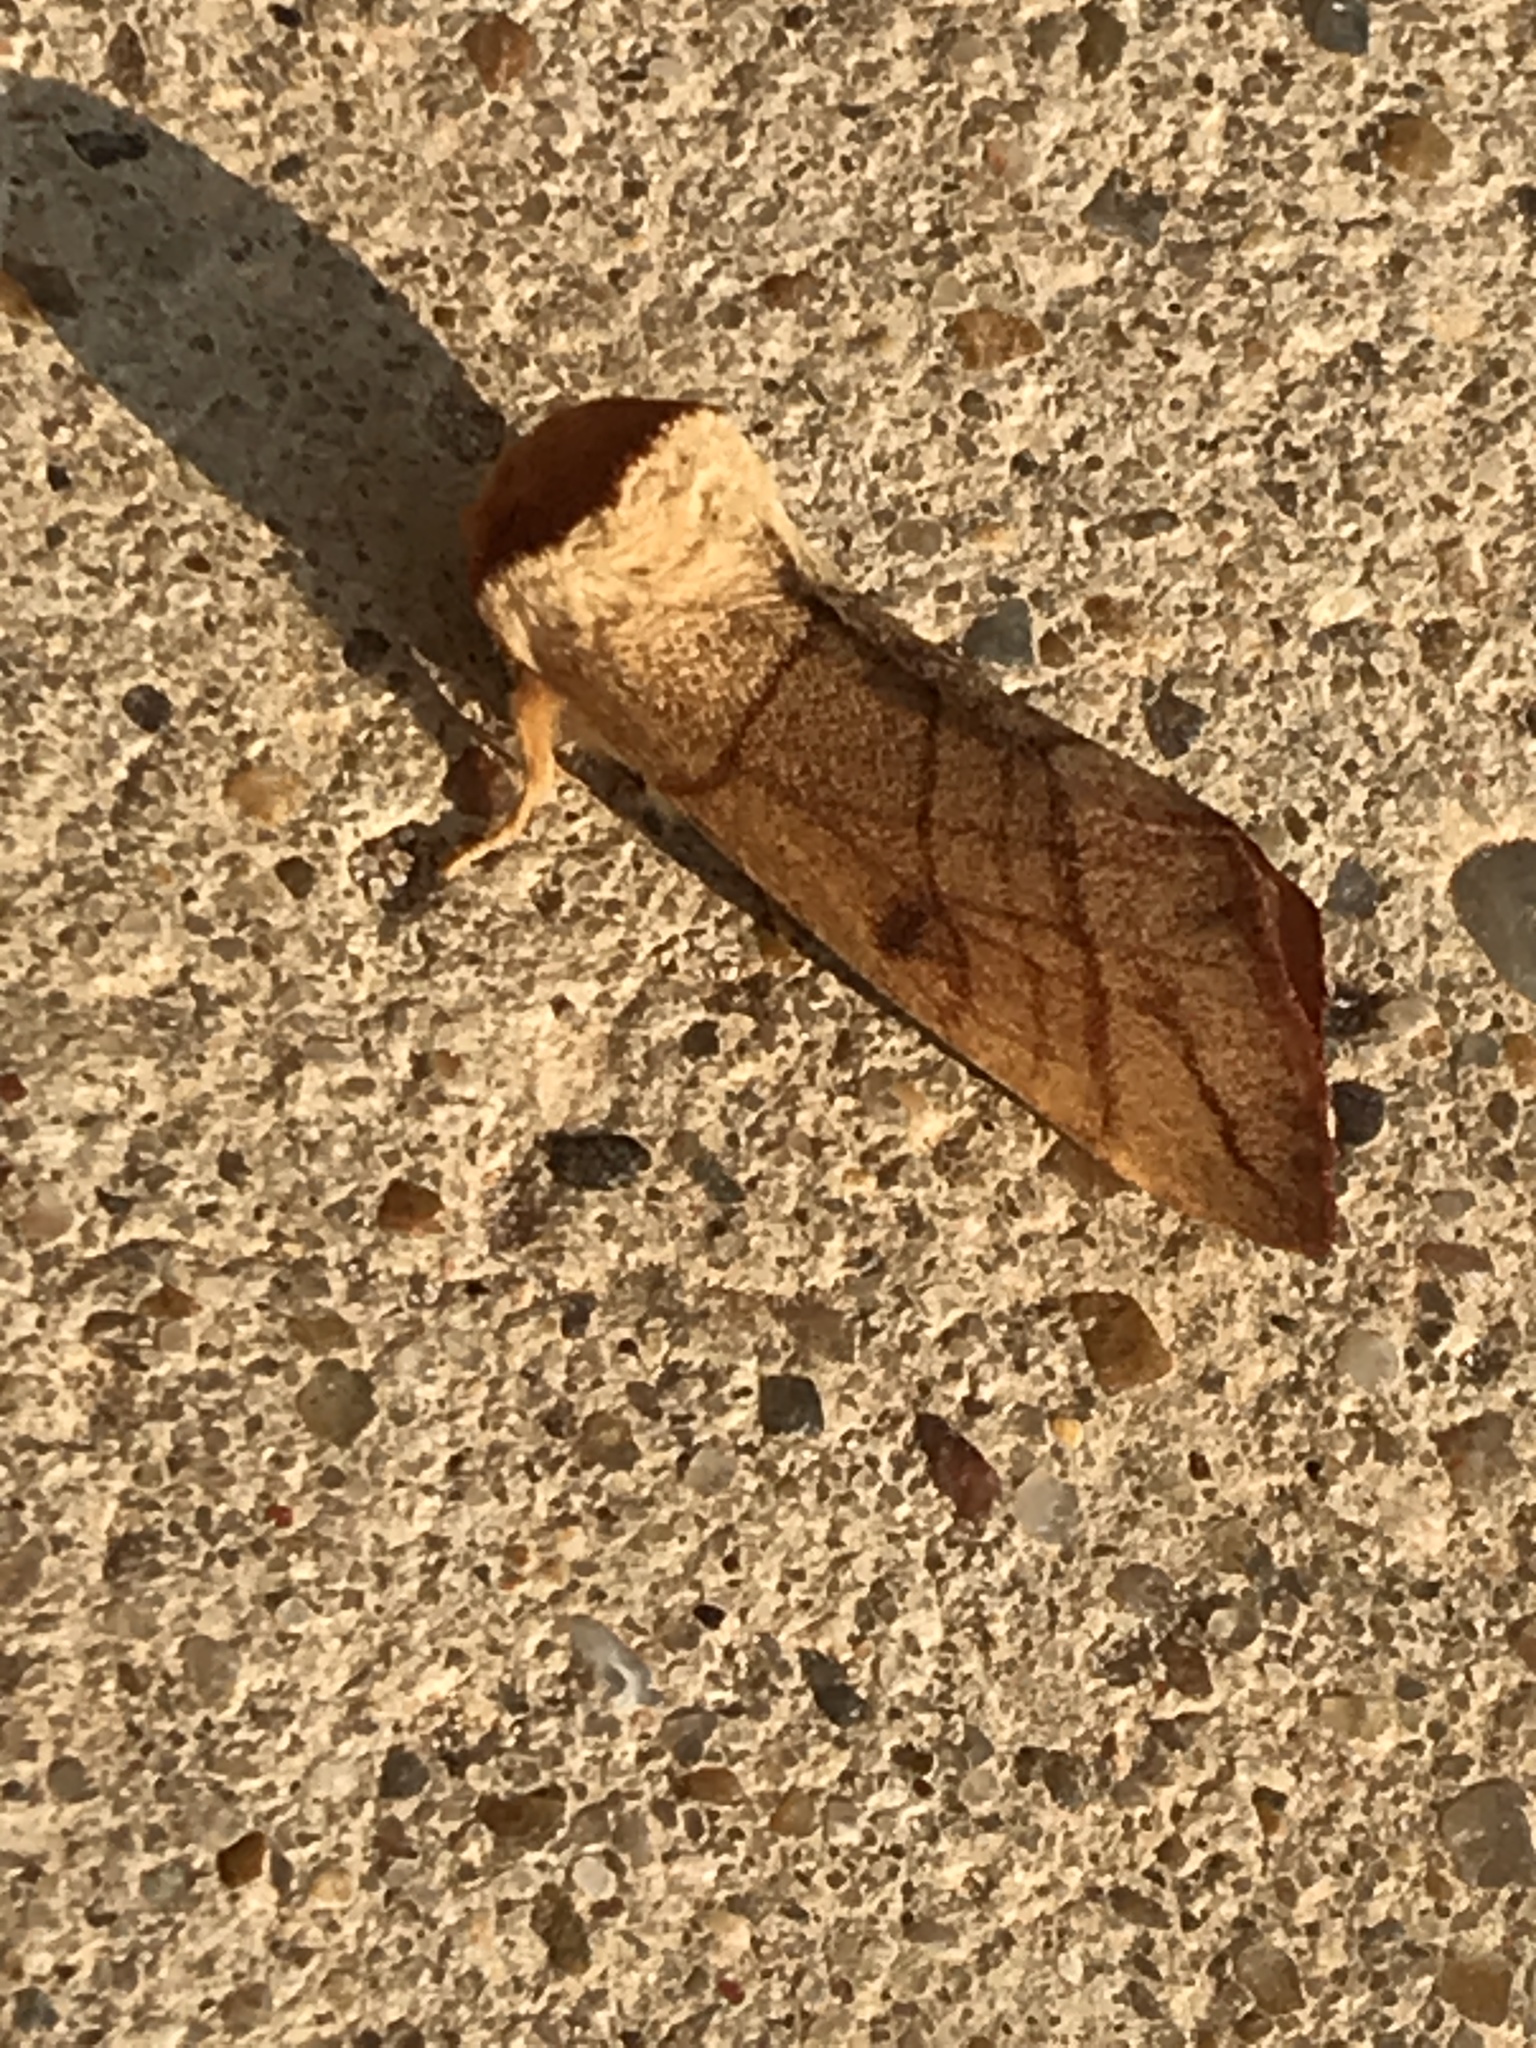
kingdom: Animalia
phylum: Arthropoda
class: Insecta
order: Lepidoptera
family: Notodontidae
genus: Datana
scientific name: Datana perspicua
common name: Spotted datana
